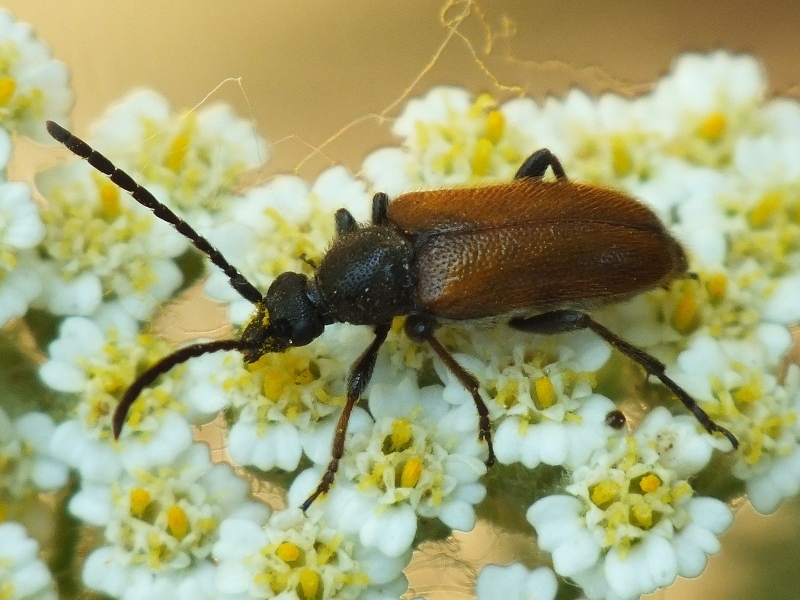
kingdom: Animalia
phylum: Arthropoda
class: Insecta
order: Coleoptera
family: Cerambycidae
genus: Pseudovadonia
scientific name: Pseudovadonia livida
